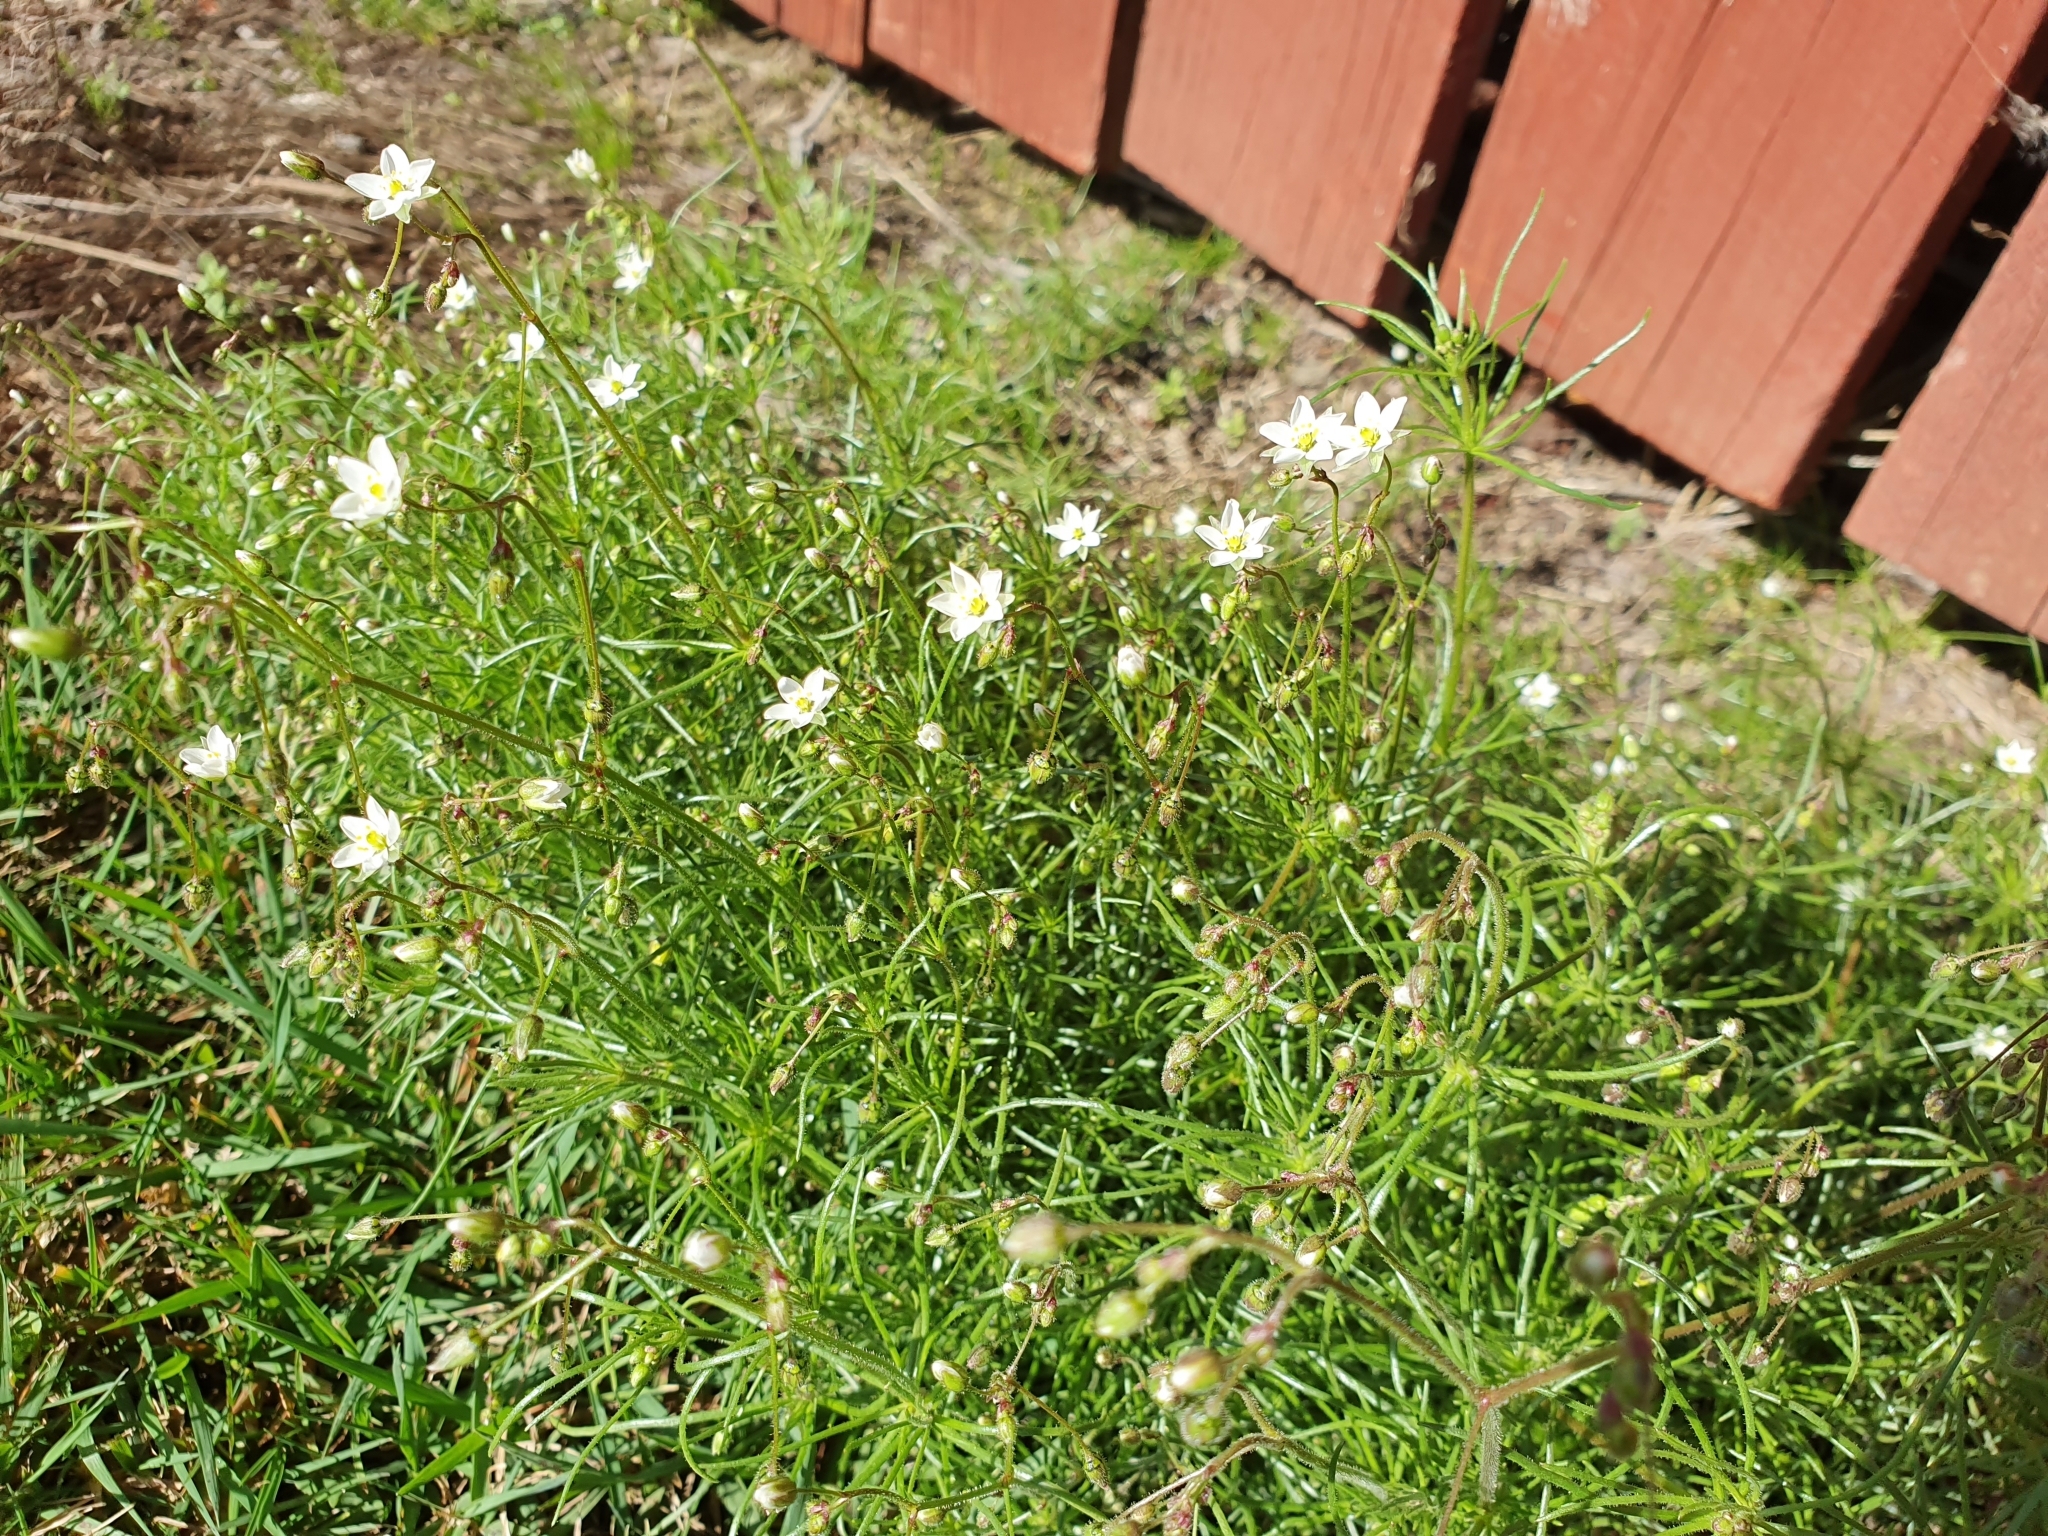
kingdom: Plantae
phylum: Tracheophyta
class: Magnoliopsida
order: Caryophyllales
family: Caryophyllaceae
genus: Spergula
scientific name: Spergula arvensis
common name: Corn spurrey
